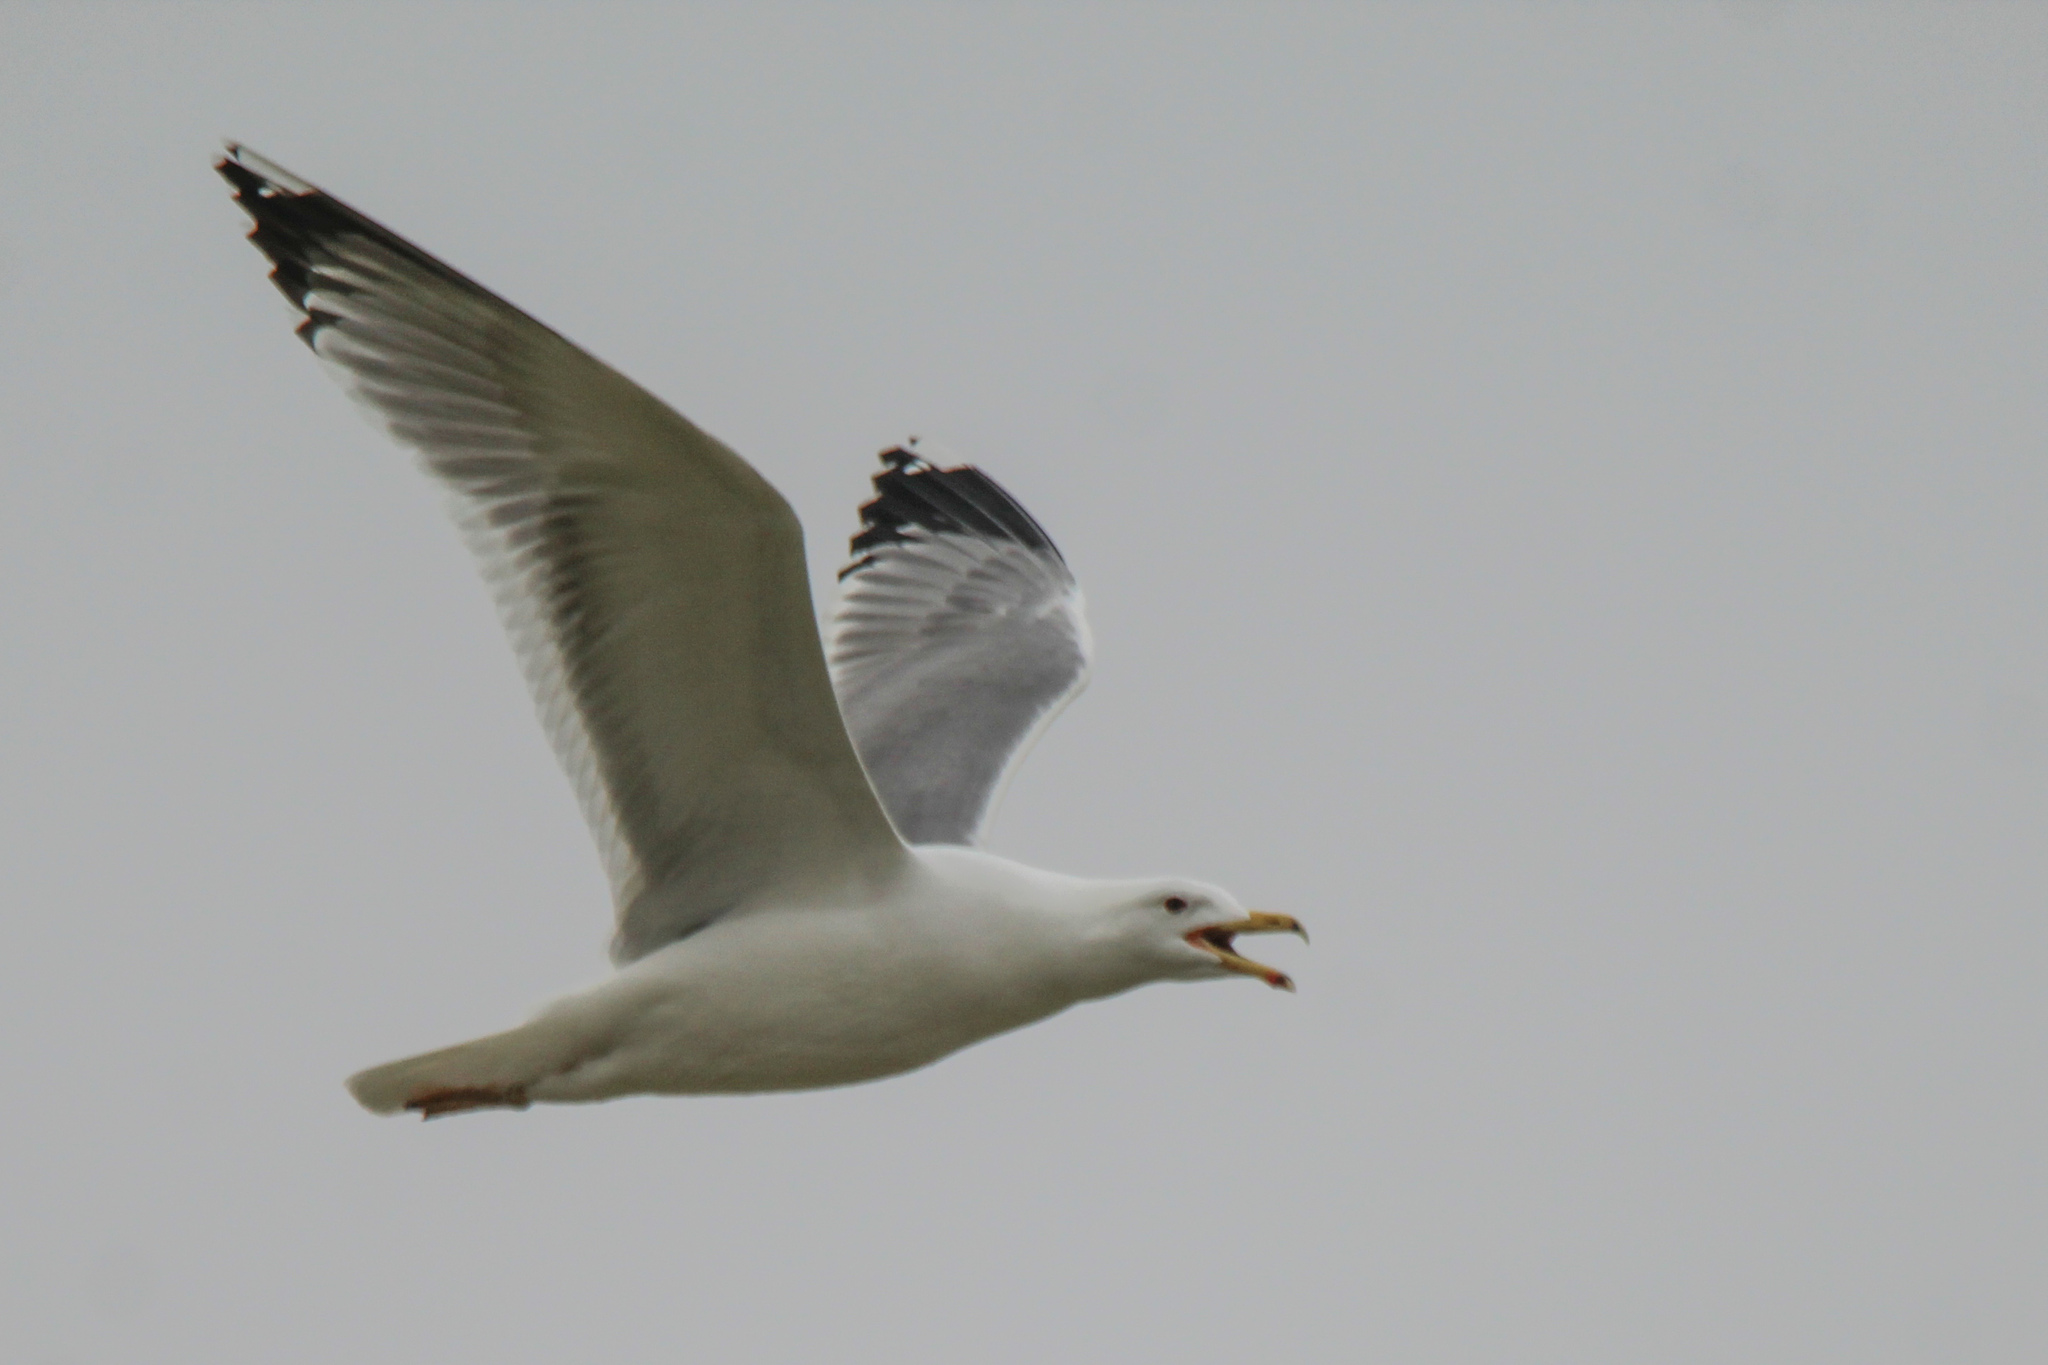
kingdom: Animalia
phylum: Chordata
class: Aves
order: Charadriiformes
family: Laridae
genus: Larus
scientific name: Larus cachinnans
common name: Caspian gull
